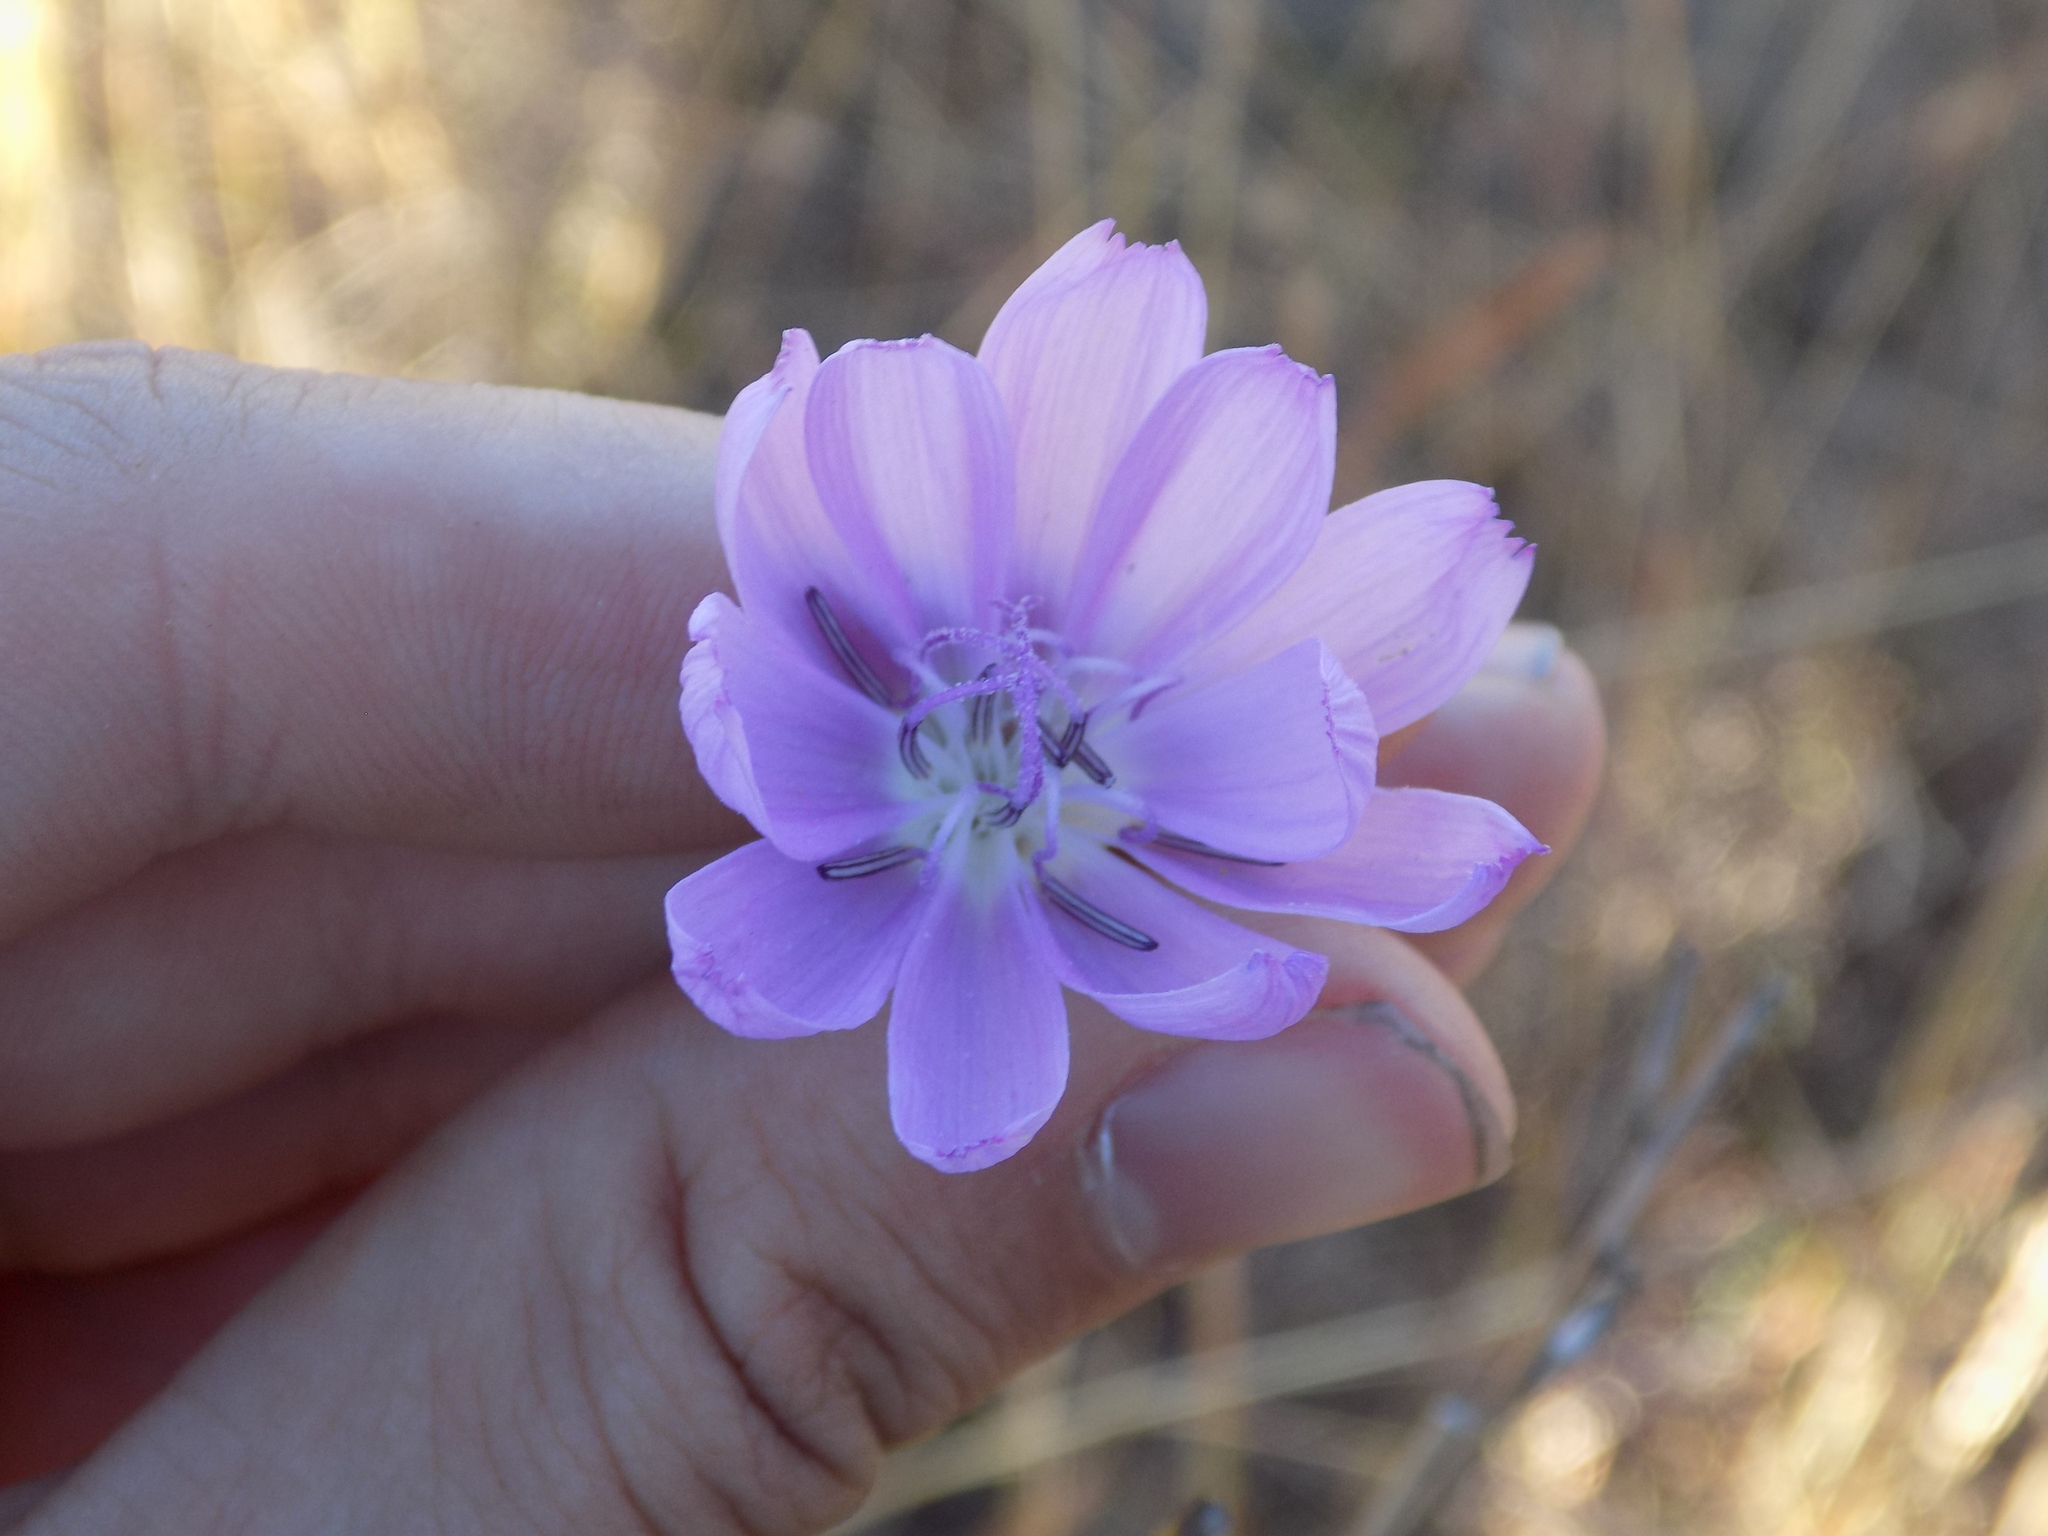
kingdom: Plantae
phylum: Tracheophyta
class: Magnoliopsida
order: Asterales
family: Asteraceae
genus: Lygodesmia
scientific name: Lygodesmia texana
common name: Texas skeleton-plant
